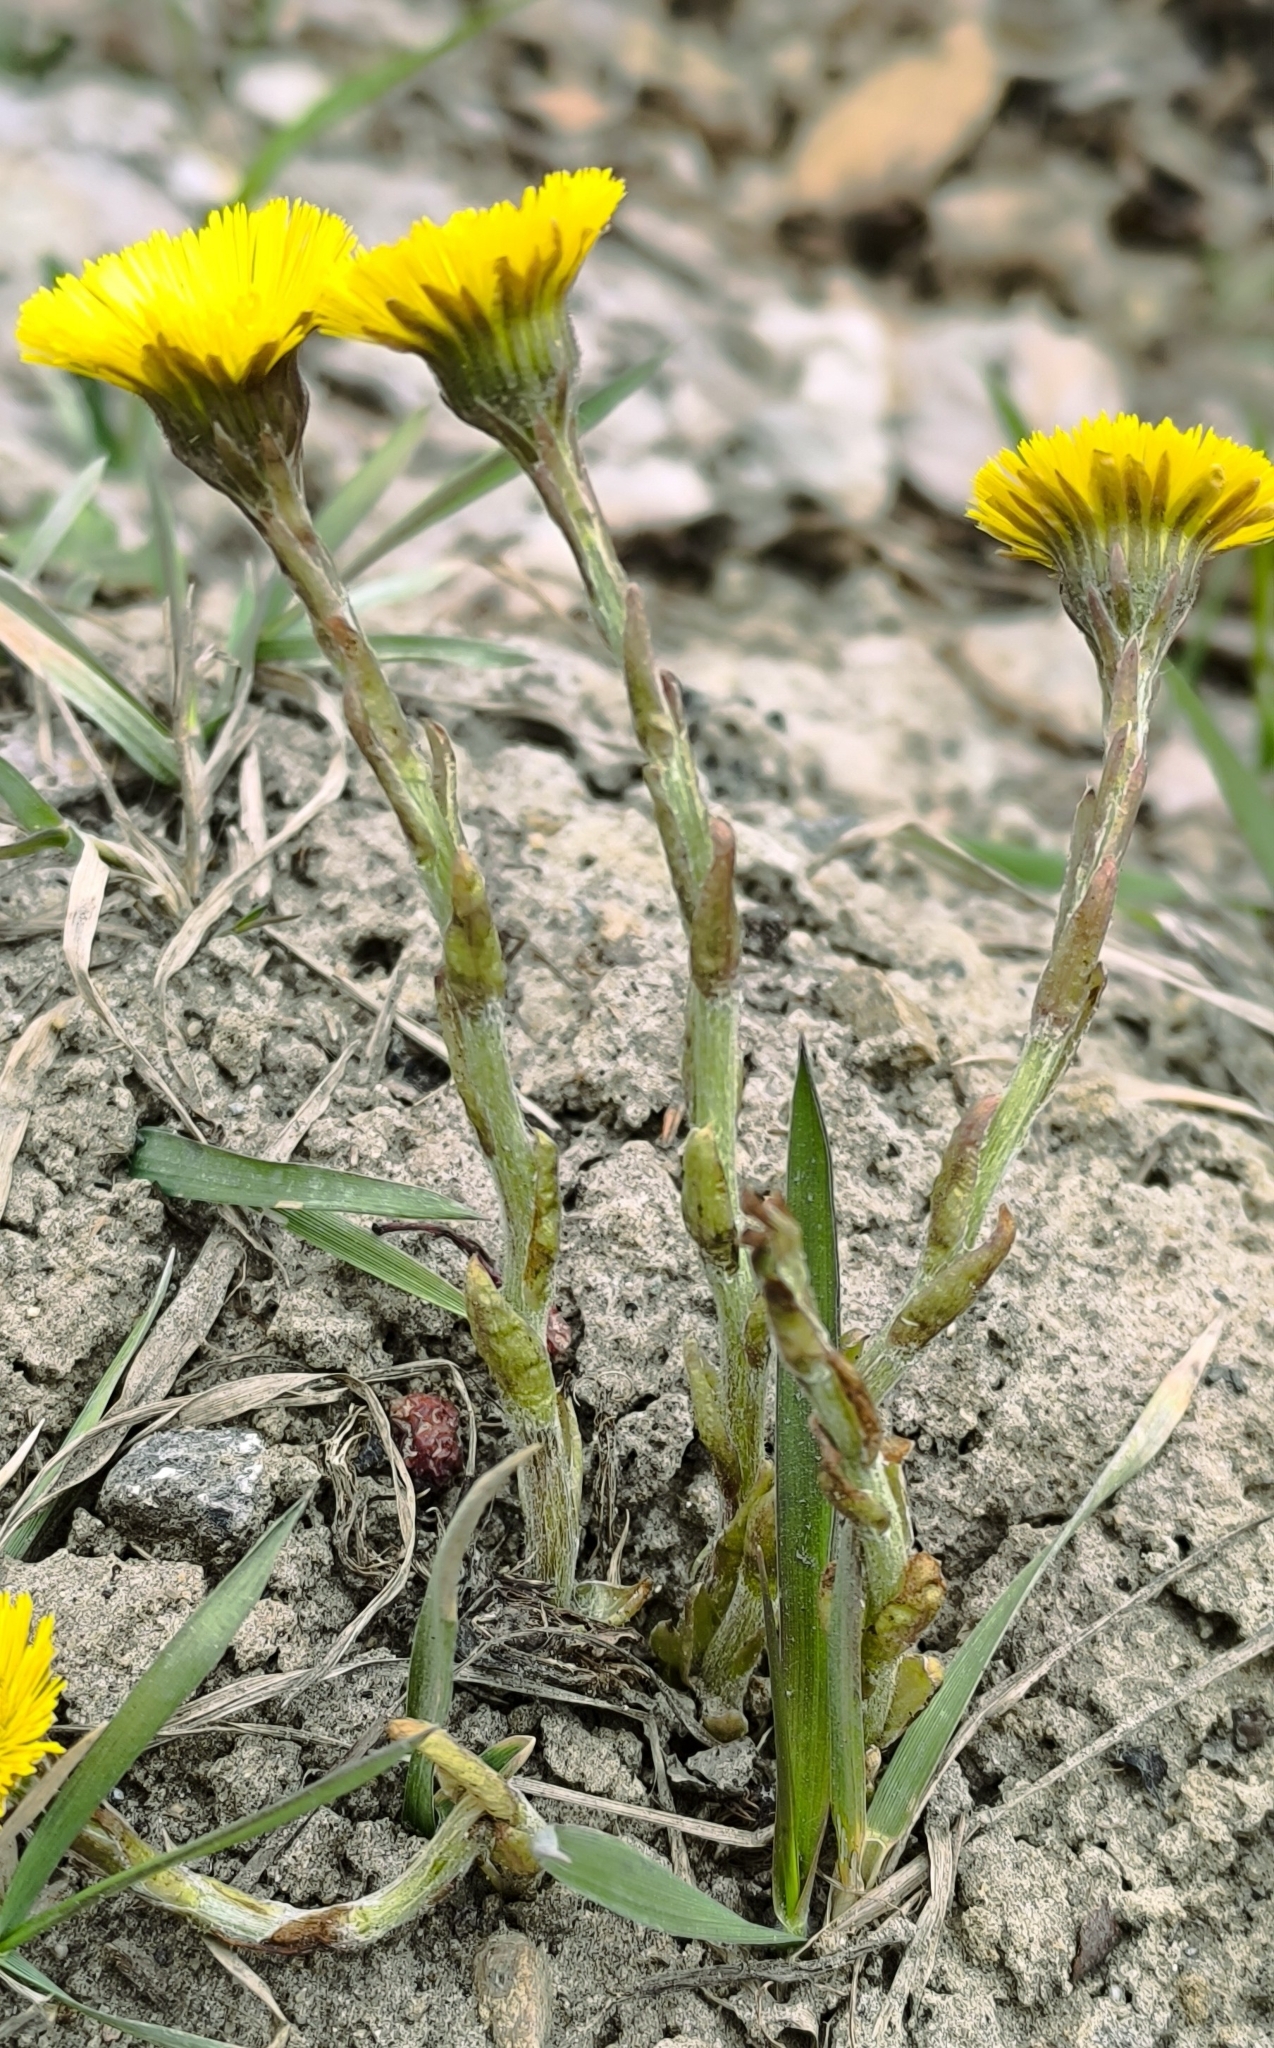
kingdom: Plantae
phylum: Tracheophyta
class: Magnoliopsida
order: Asterales
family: Asteraceae
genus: Tussilago
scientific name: Tussilago farfara
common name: Coltsfoot
